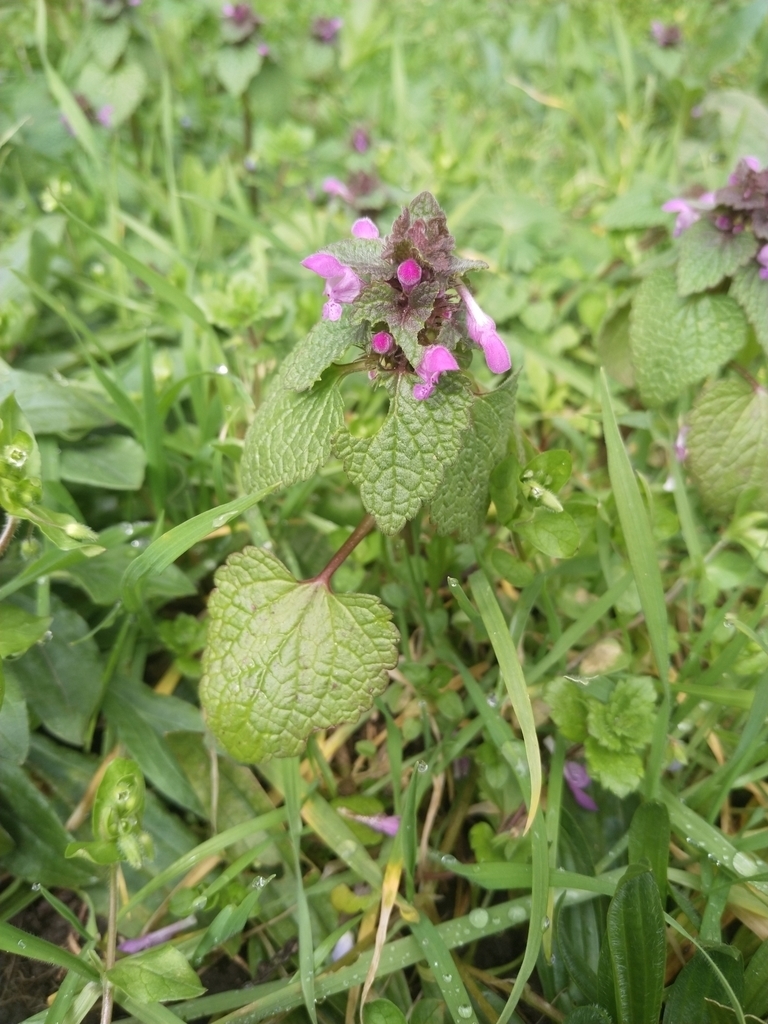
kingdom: Plantae
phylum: Tracheophyta
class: Magnoliopsida
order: Lamiales
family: Lamiaceae
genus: Lamium
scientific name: Lamium purpureum
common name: Red dead-nettle
